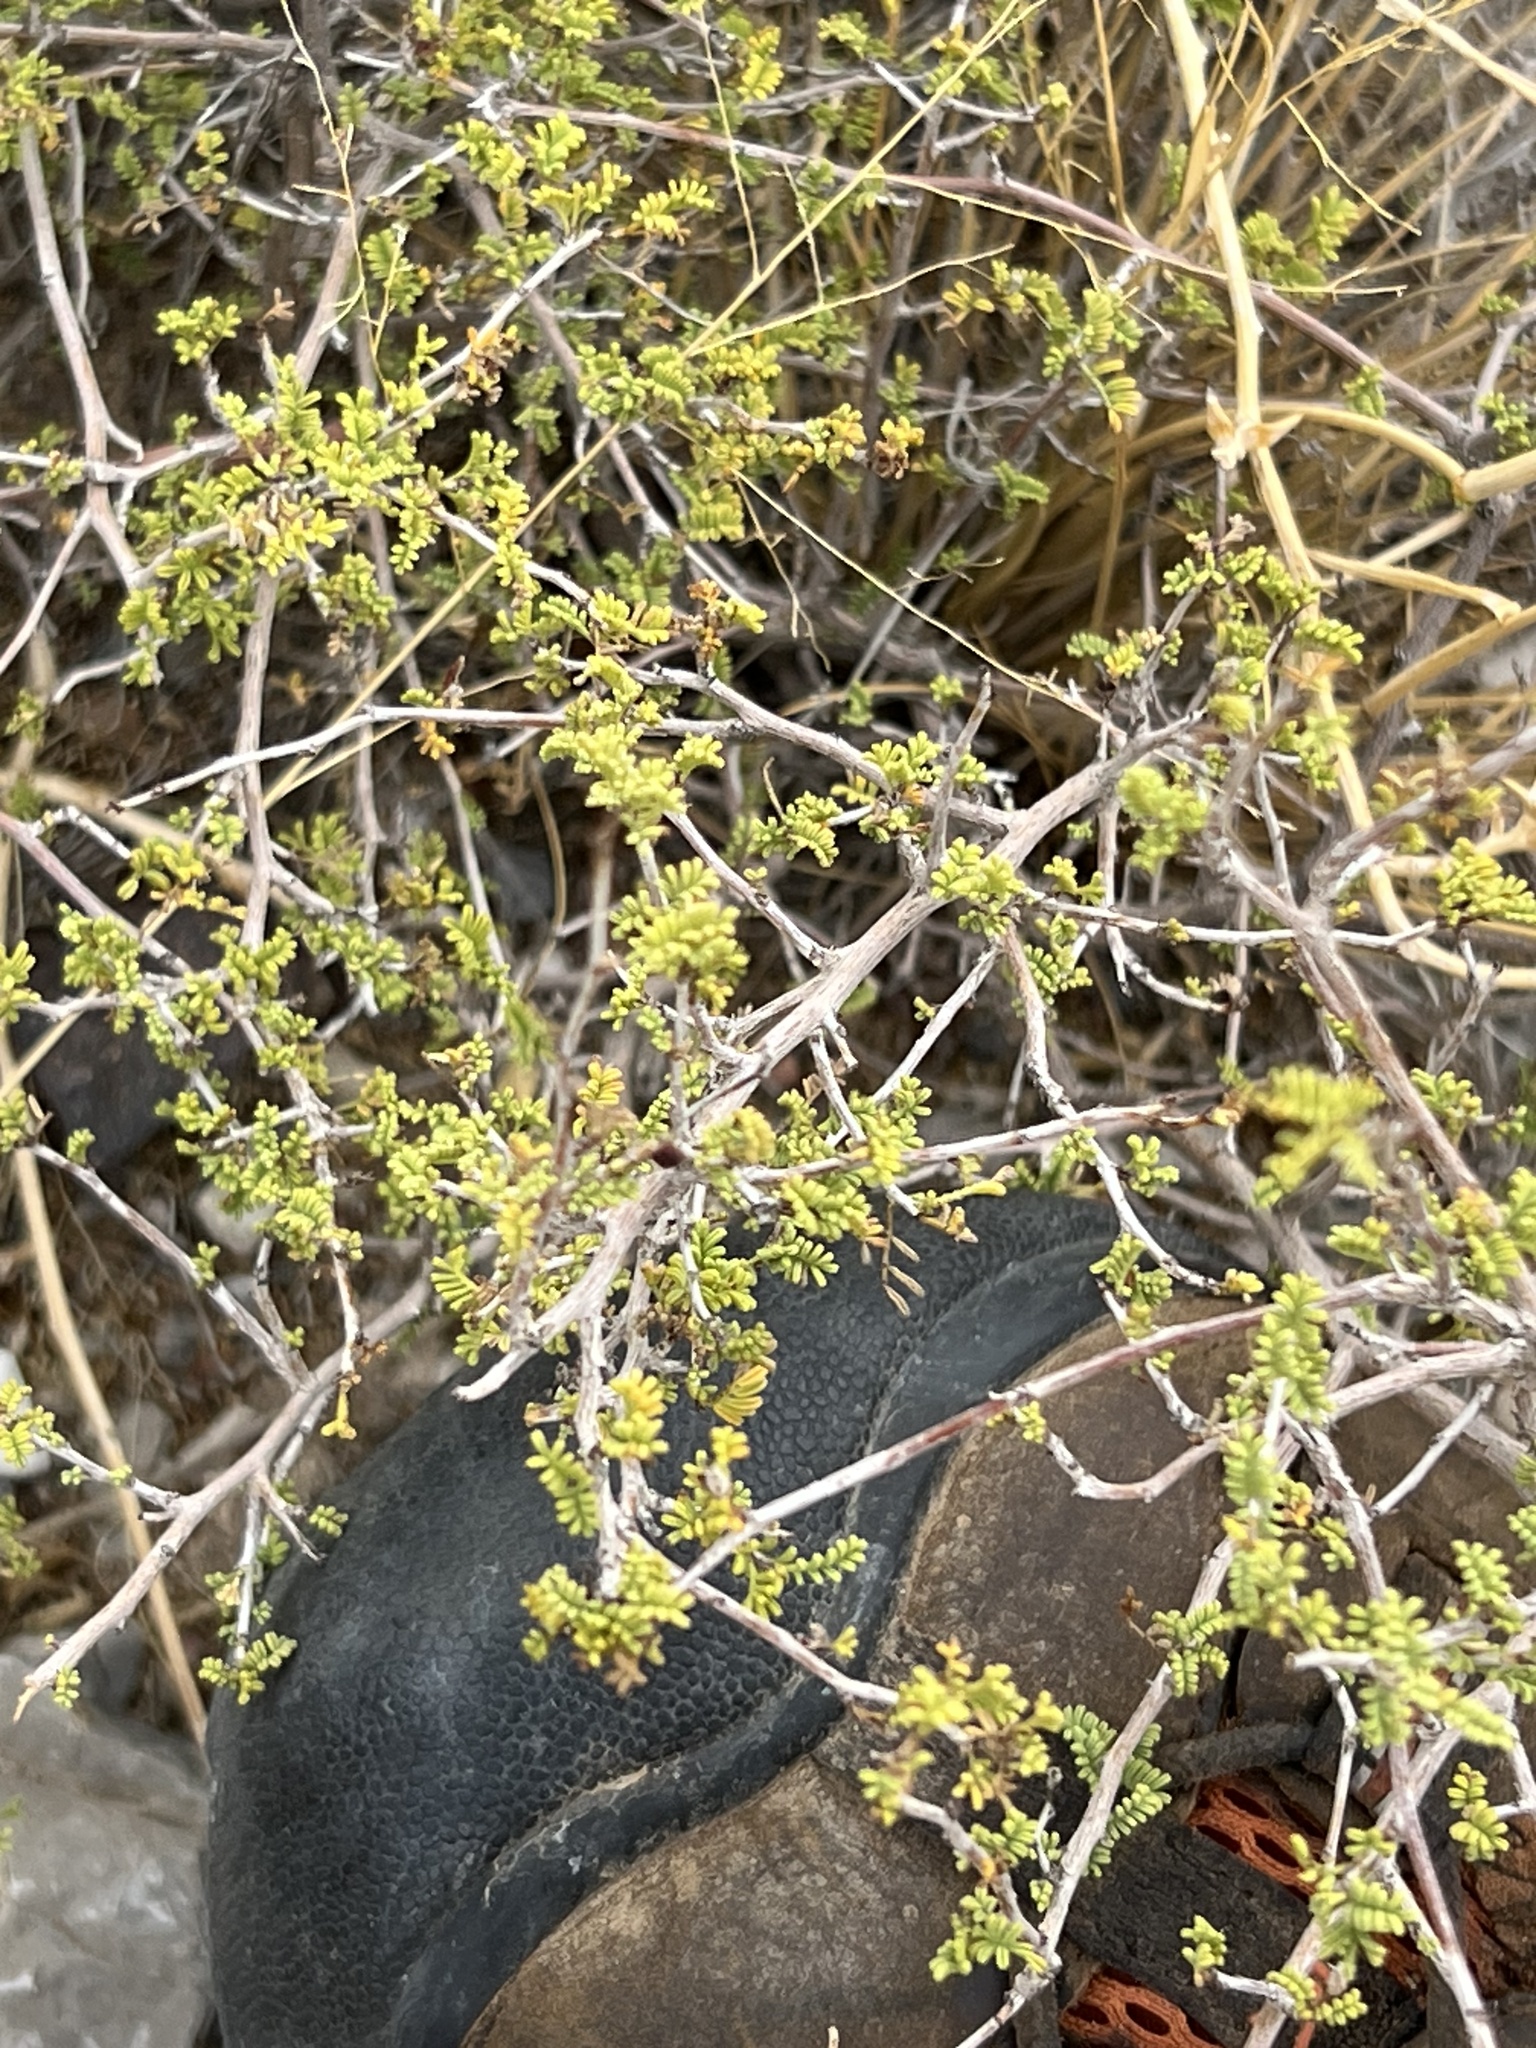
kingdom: Plantae
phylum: Tracheophyta
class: Magnoliopsida
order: Fabales
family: Fabaceae
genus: Dalea
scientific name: Dalea formosa
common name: Feather-plume dalea
